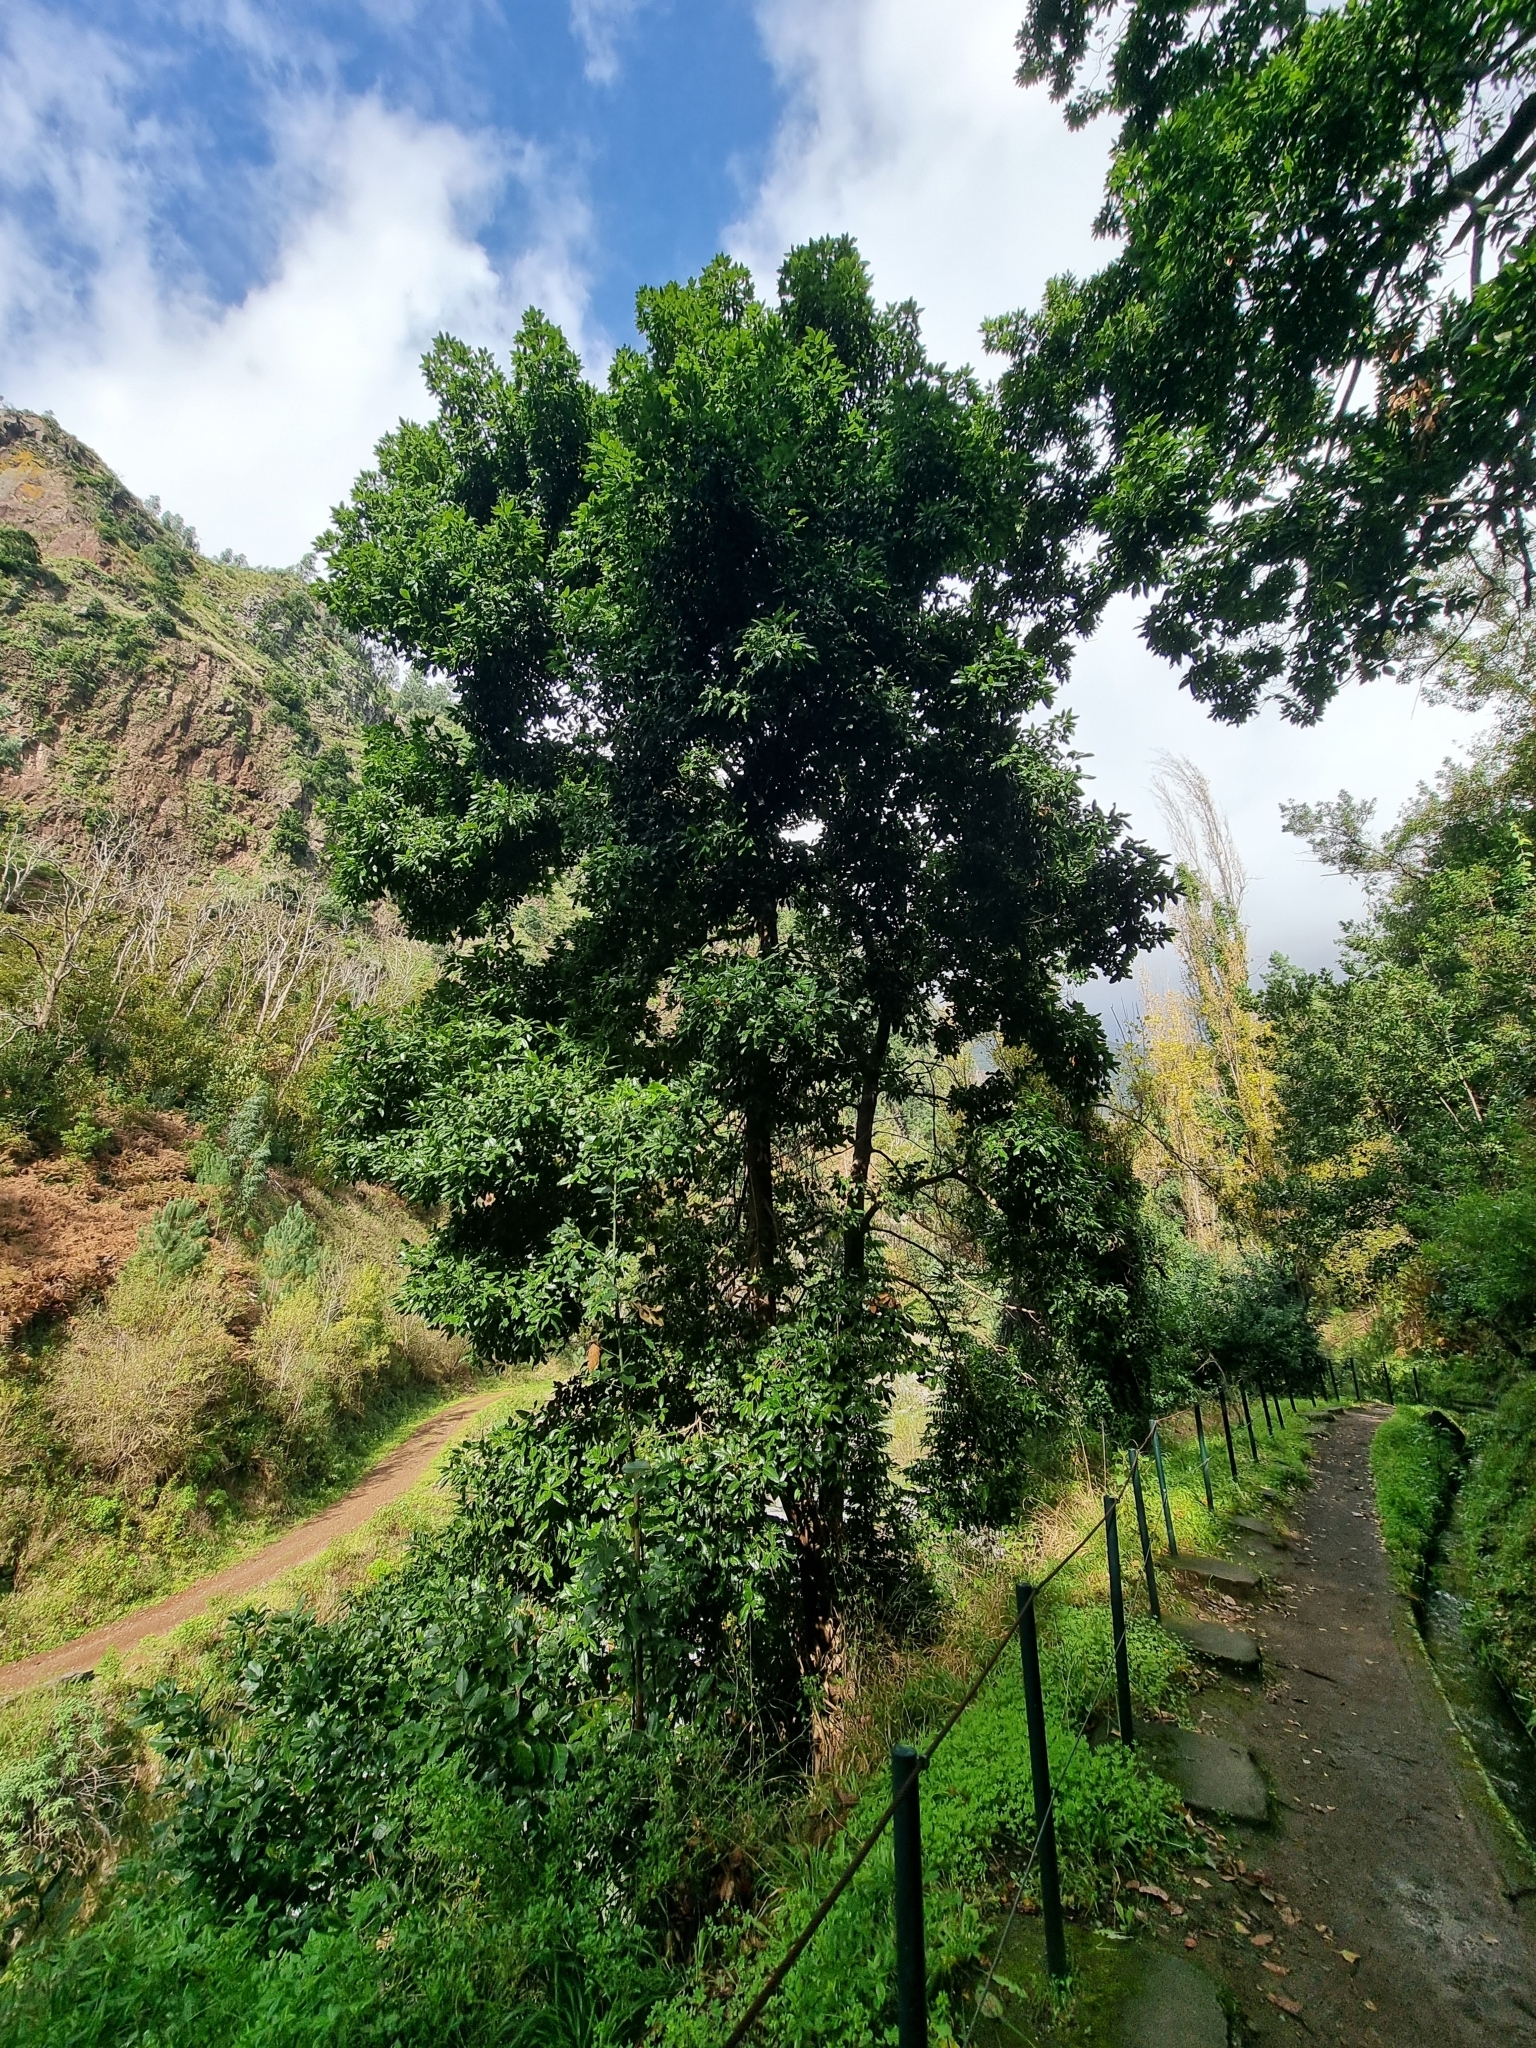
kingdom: Plantae
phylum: Tracheophyta
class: Magnoliopsida
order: Lamiales
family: Oleaceae
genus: Picconia
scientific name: Picconia excelsa
